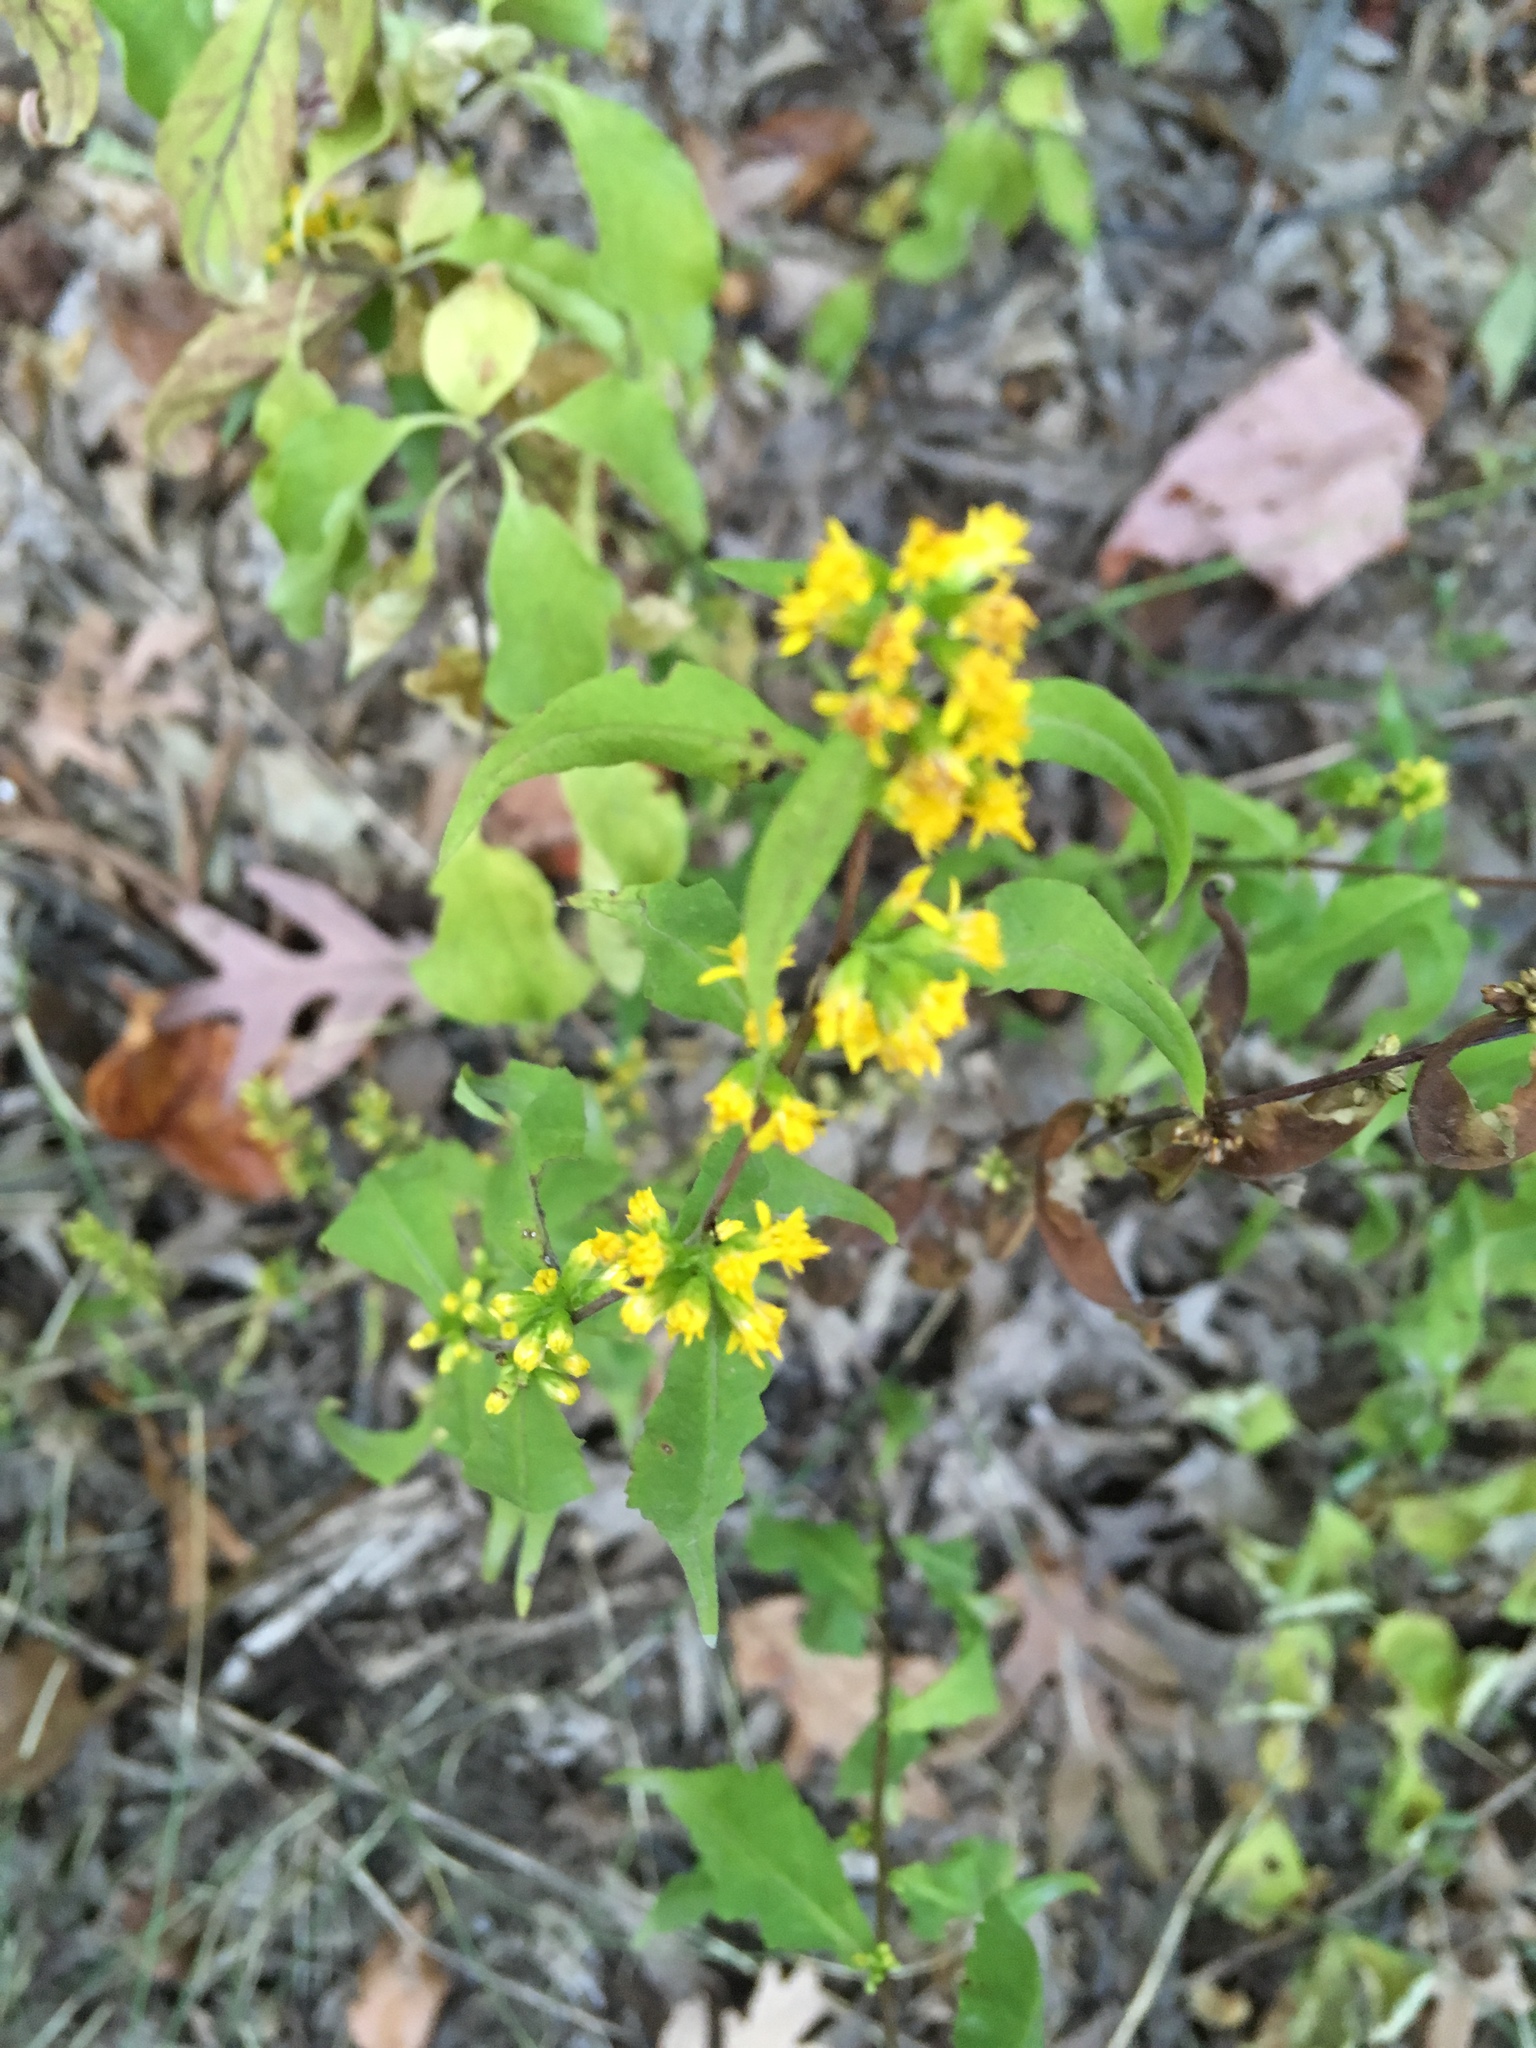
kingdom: Plantae
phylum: Tracheophyta
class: Magnoliopsida
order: Asterales
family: Asteraceae
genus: Solidago
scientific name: Solidago caesia
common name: Woodland goldenrod
